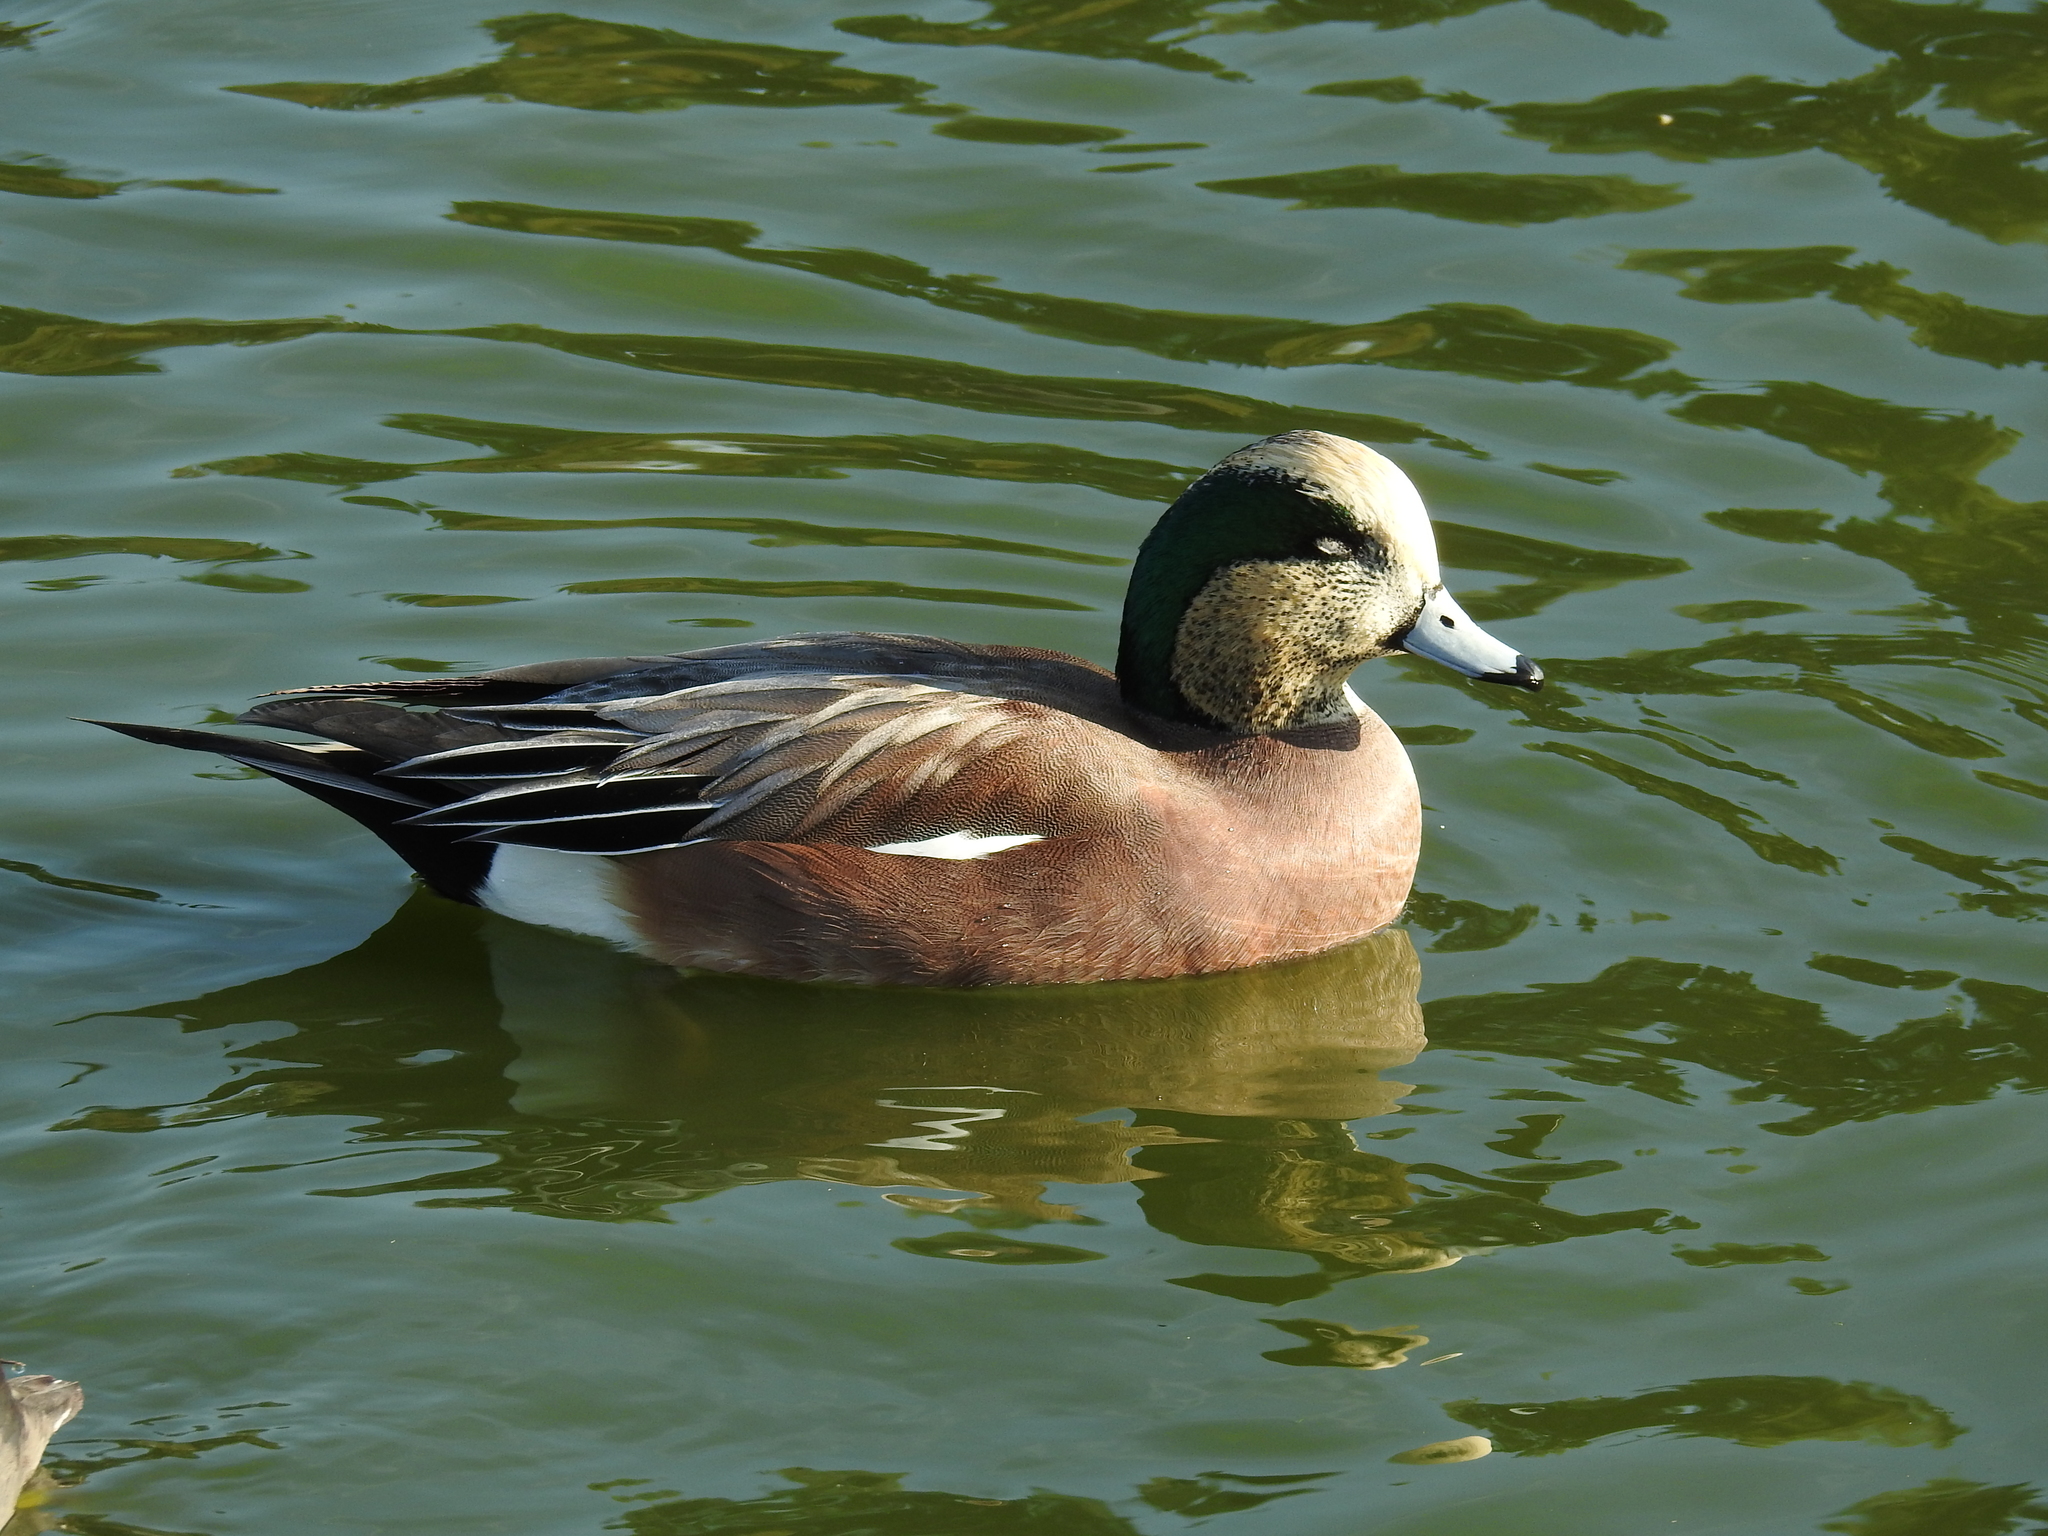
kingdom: Animalia
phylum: Chordata
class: Aves
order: Anseriformes
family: Anatidae
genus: Mareca
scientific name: Mareca americana
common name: American wigeon
